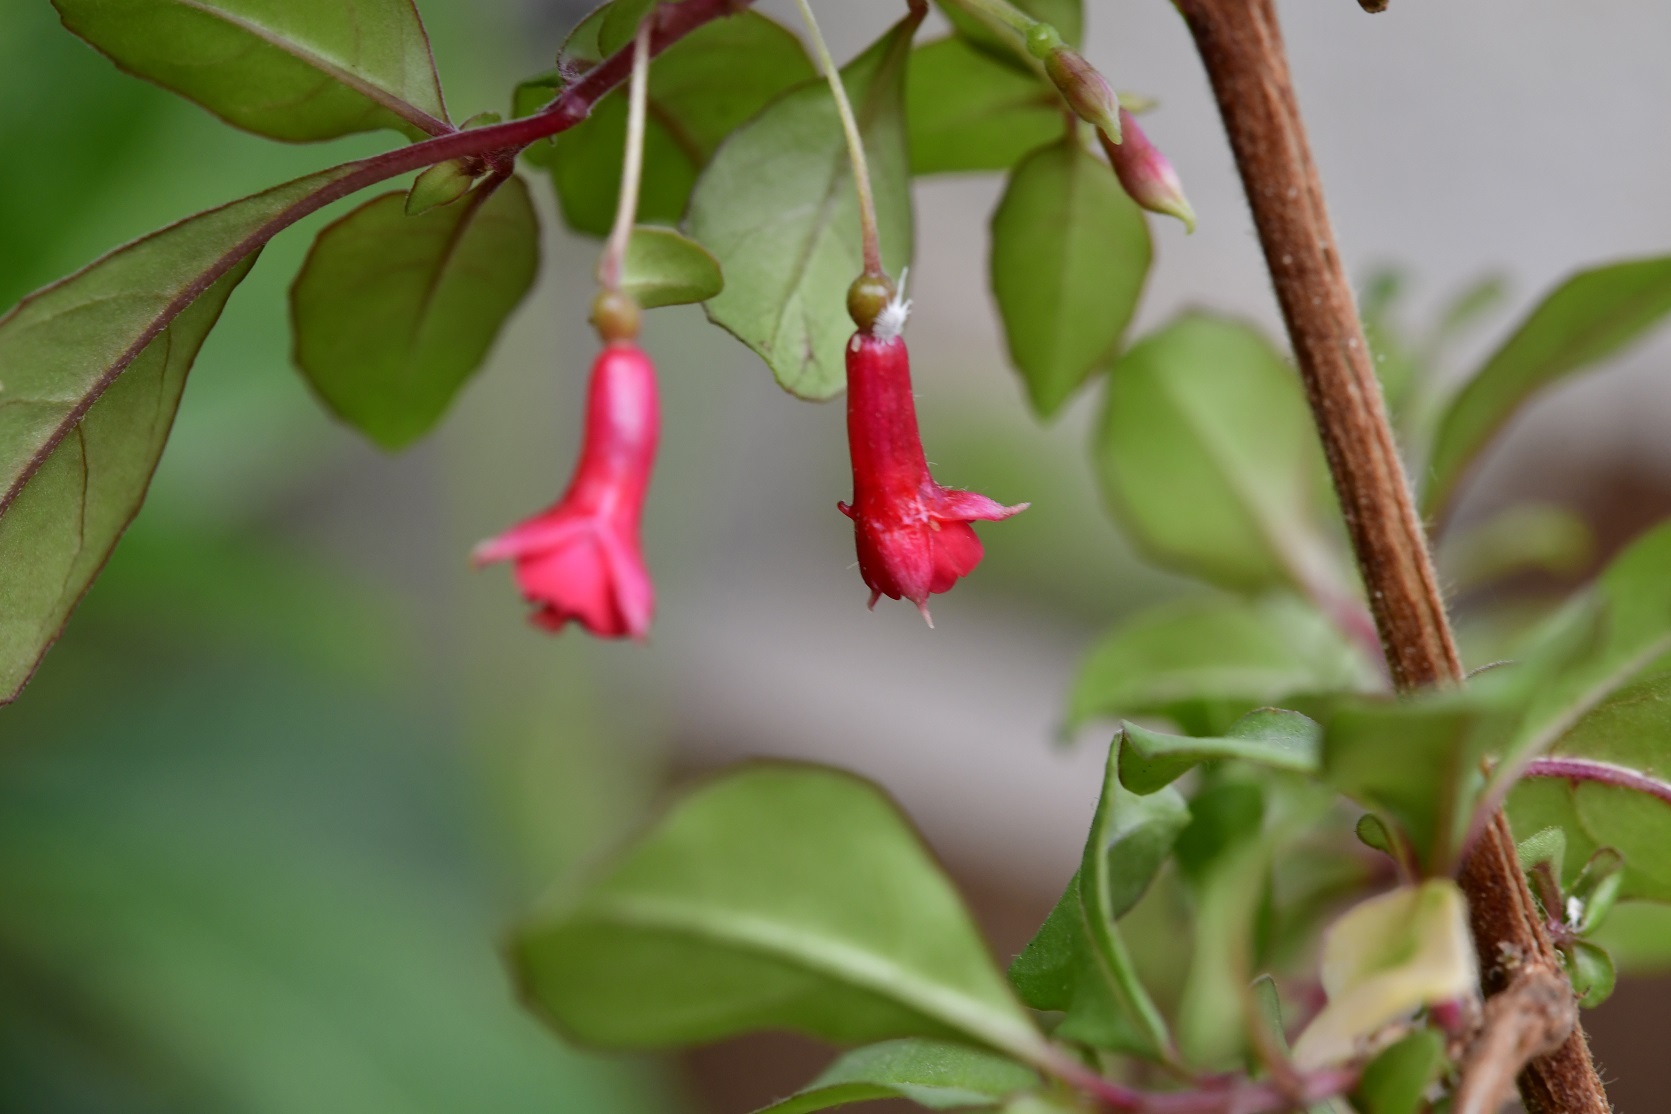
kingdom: Plantae
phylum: Tracheophyta
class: Magnoliopsida
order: Myrtales
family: Onagraceae
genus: Fuchsia
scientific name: Fuchsia thymifolia
